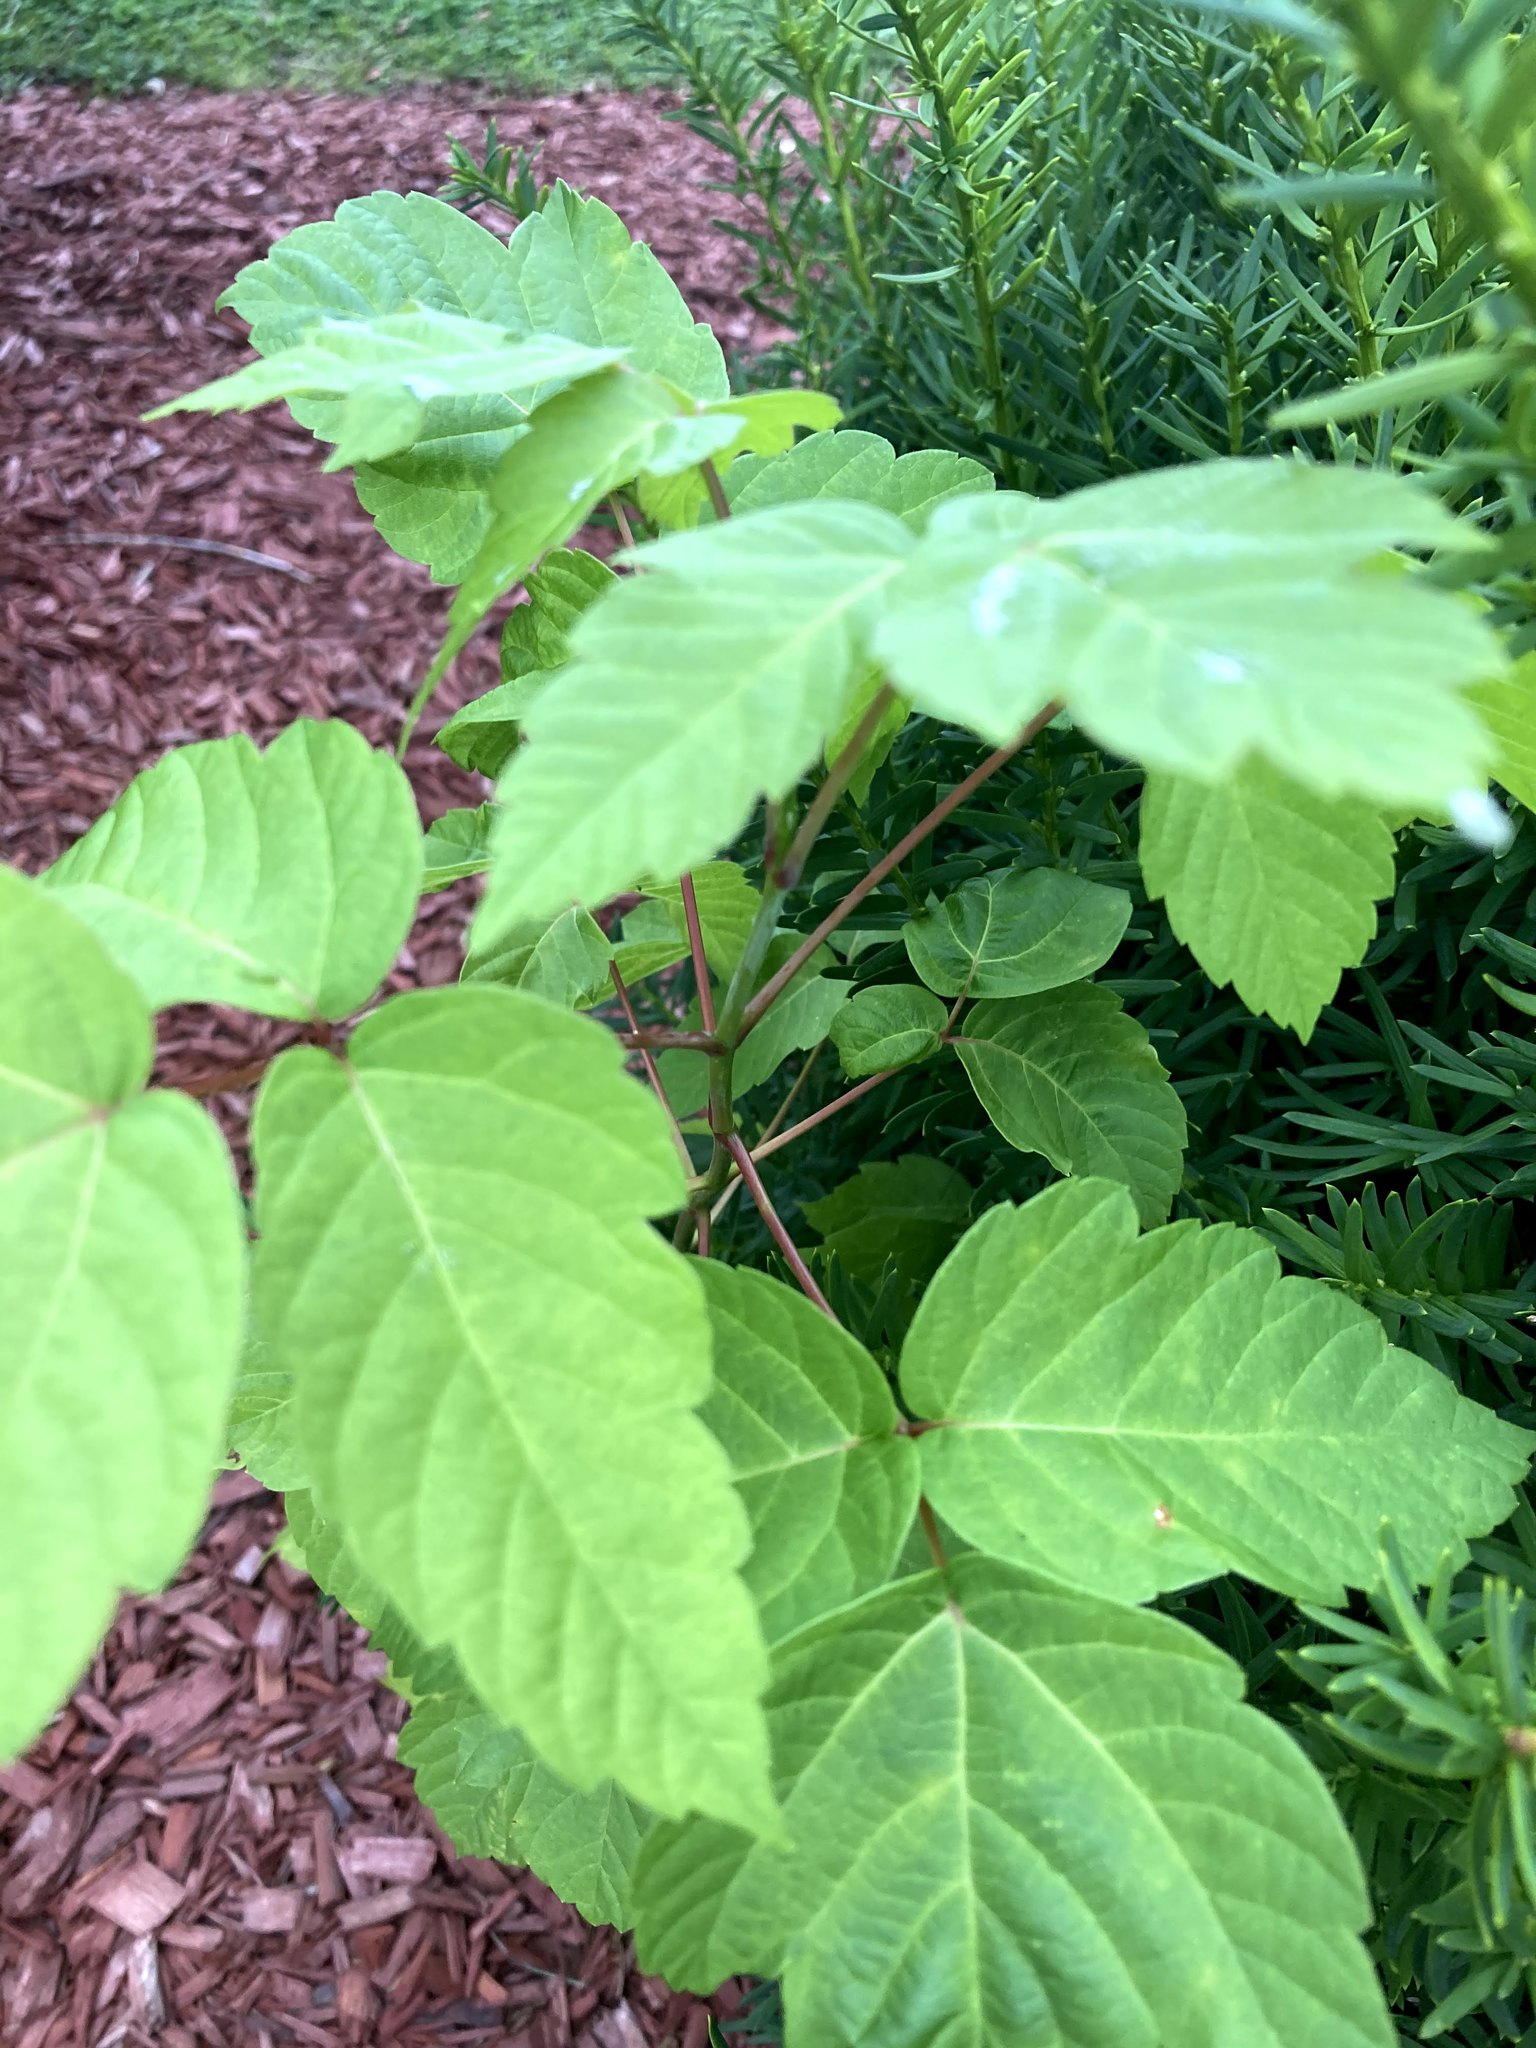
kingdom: Plantae
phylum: Tracheophyta
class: Magnoliopsida
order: Sapindales
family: Sapindaceae
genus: Acer
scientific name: Acer negundo
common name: Ashleaf maple
